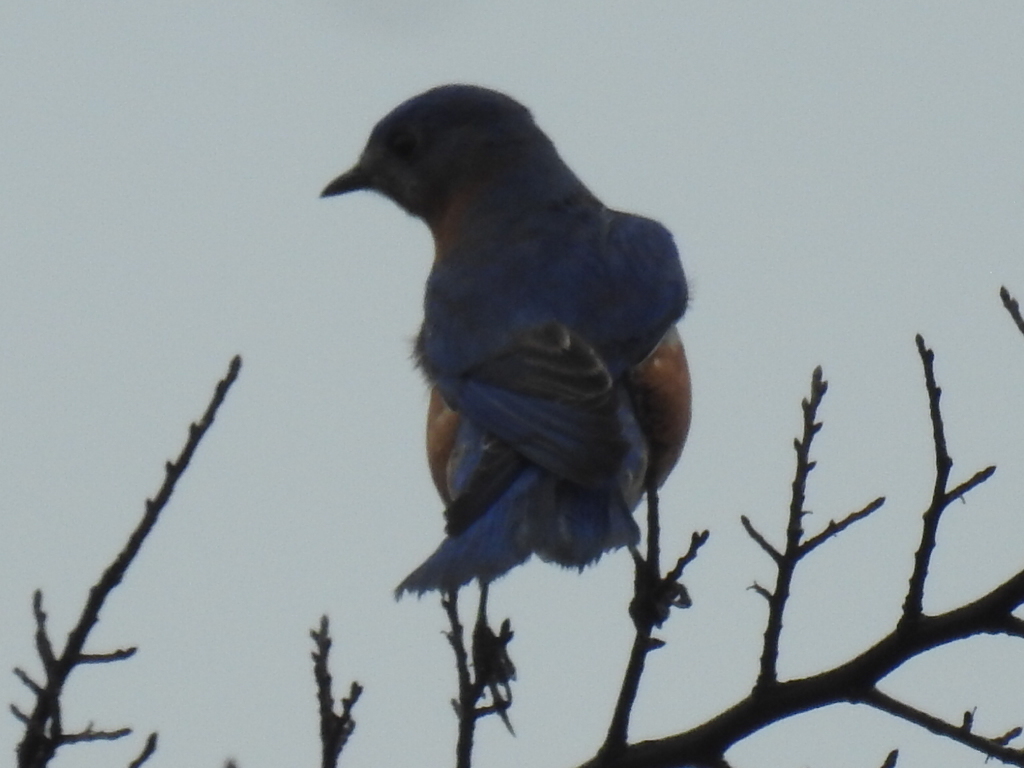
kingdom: Animalia
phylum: Chordata
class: Aves
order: Passeriformes
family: Turdidae
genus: Sialia
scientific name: Sialia sialis
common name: Eastern bluebird
